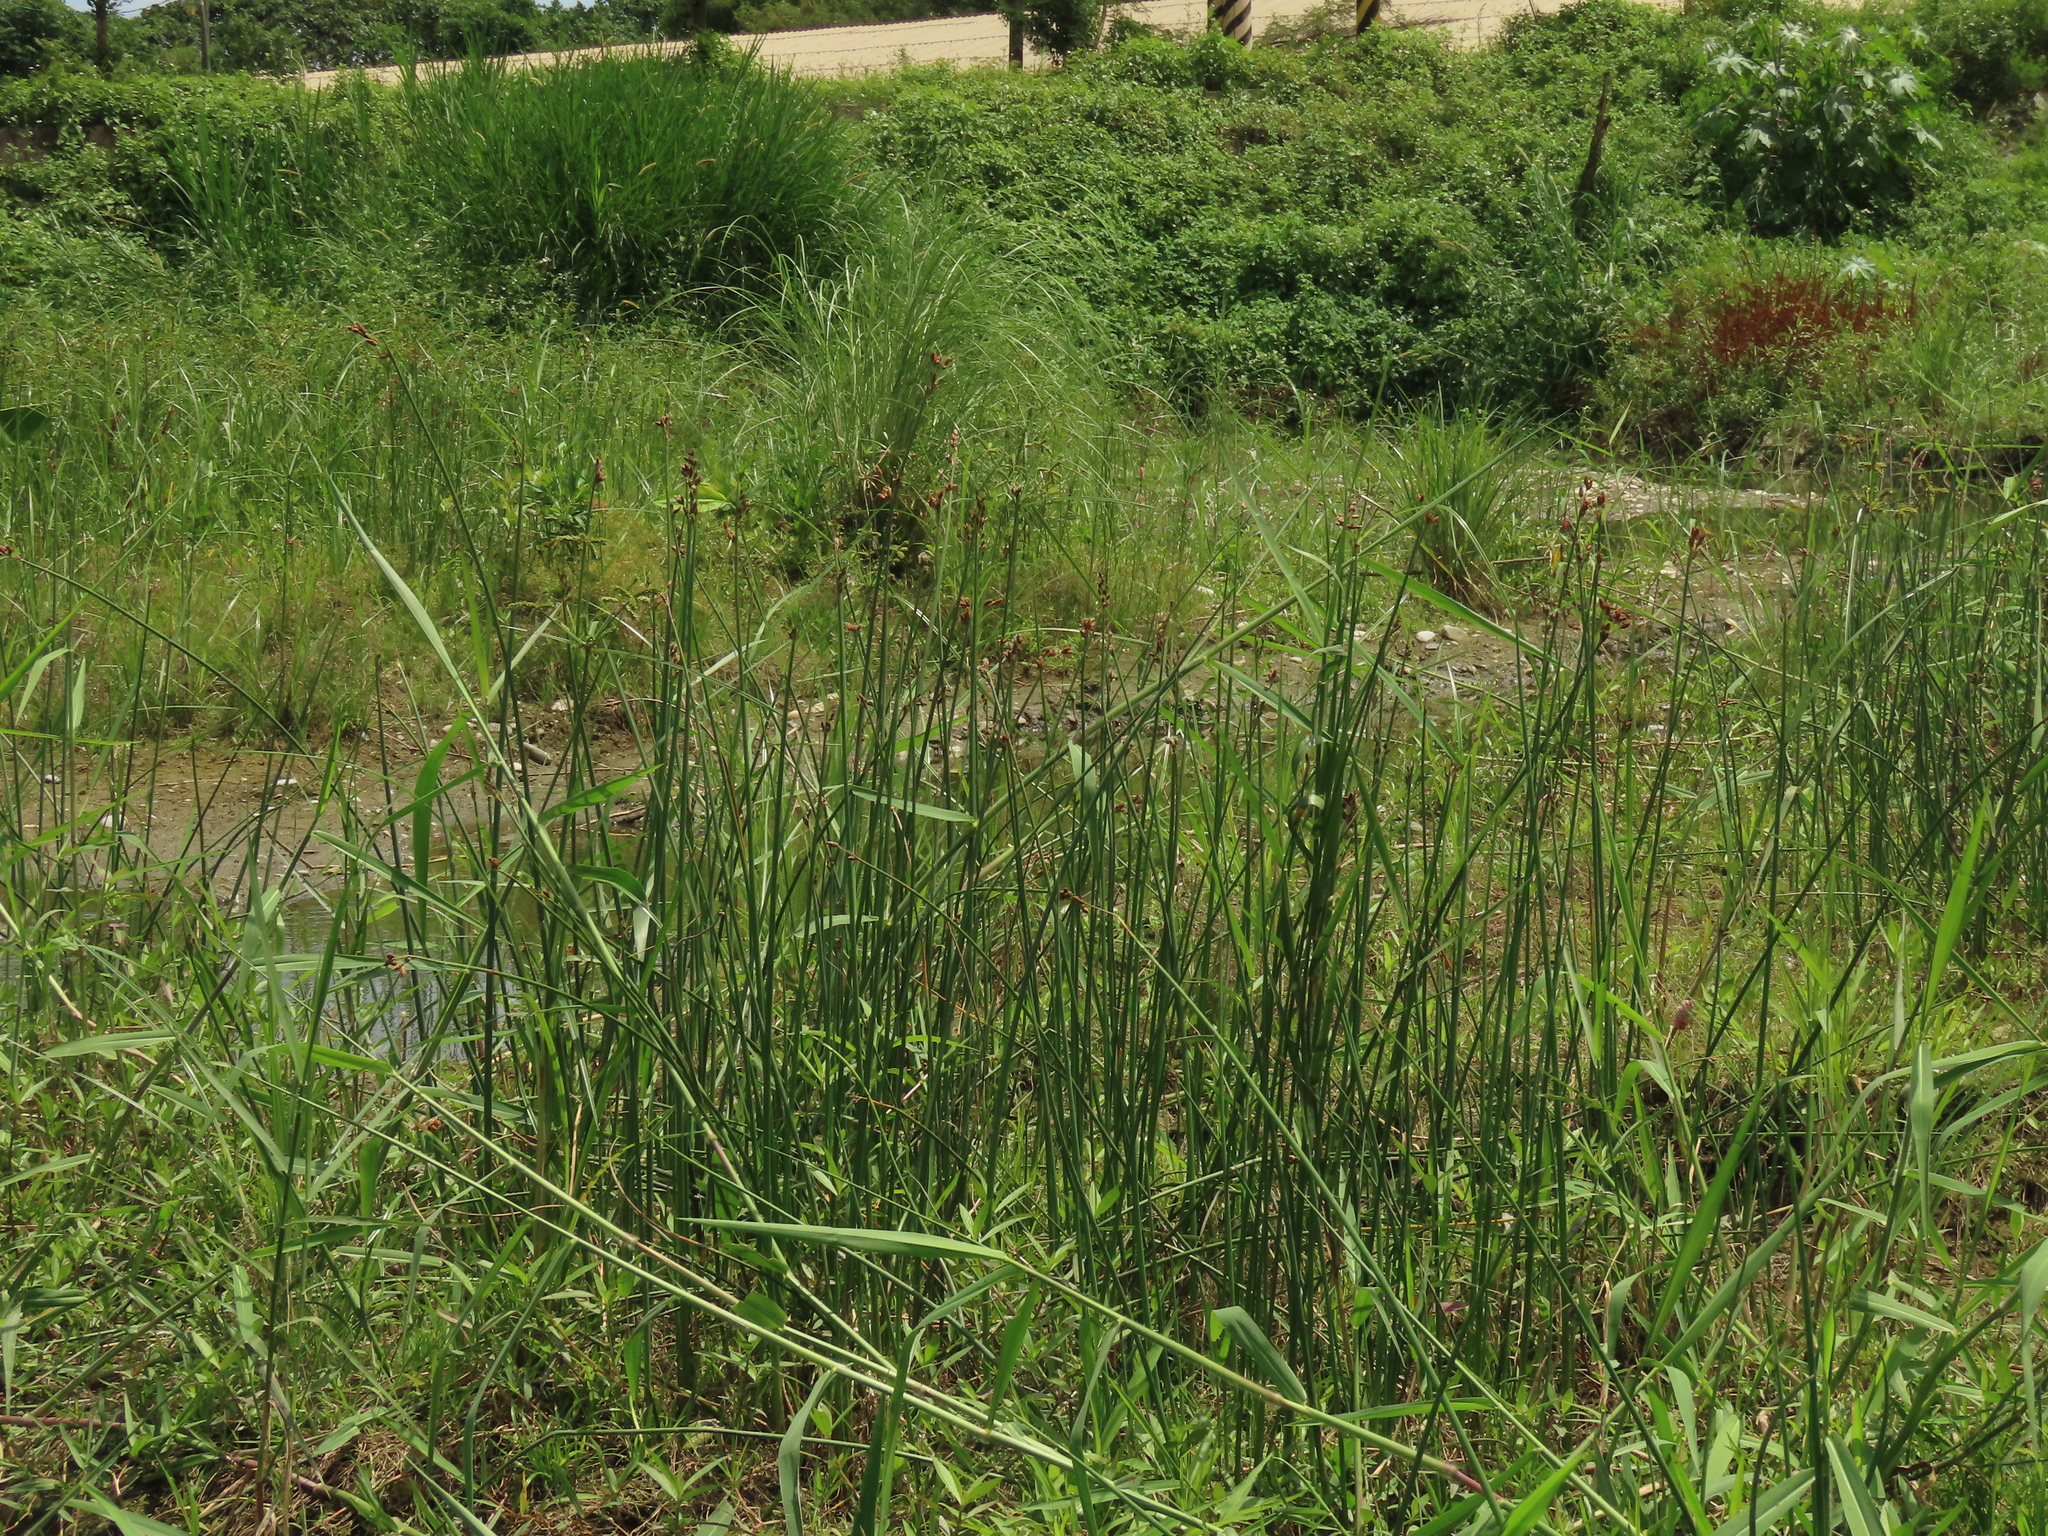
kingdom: Plantae
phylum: Tracheophyta
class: Liliopsida
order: Poales
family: Cyperaceae
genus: Schoenoplectus
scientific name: Schoenoplectus tabernaemontani
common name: Grey club-rush
